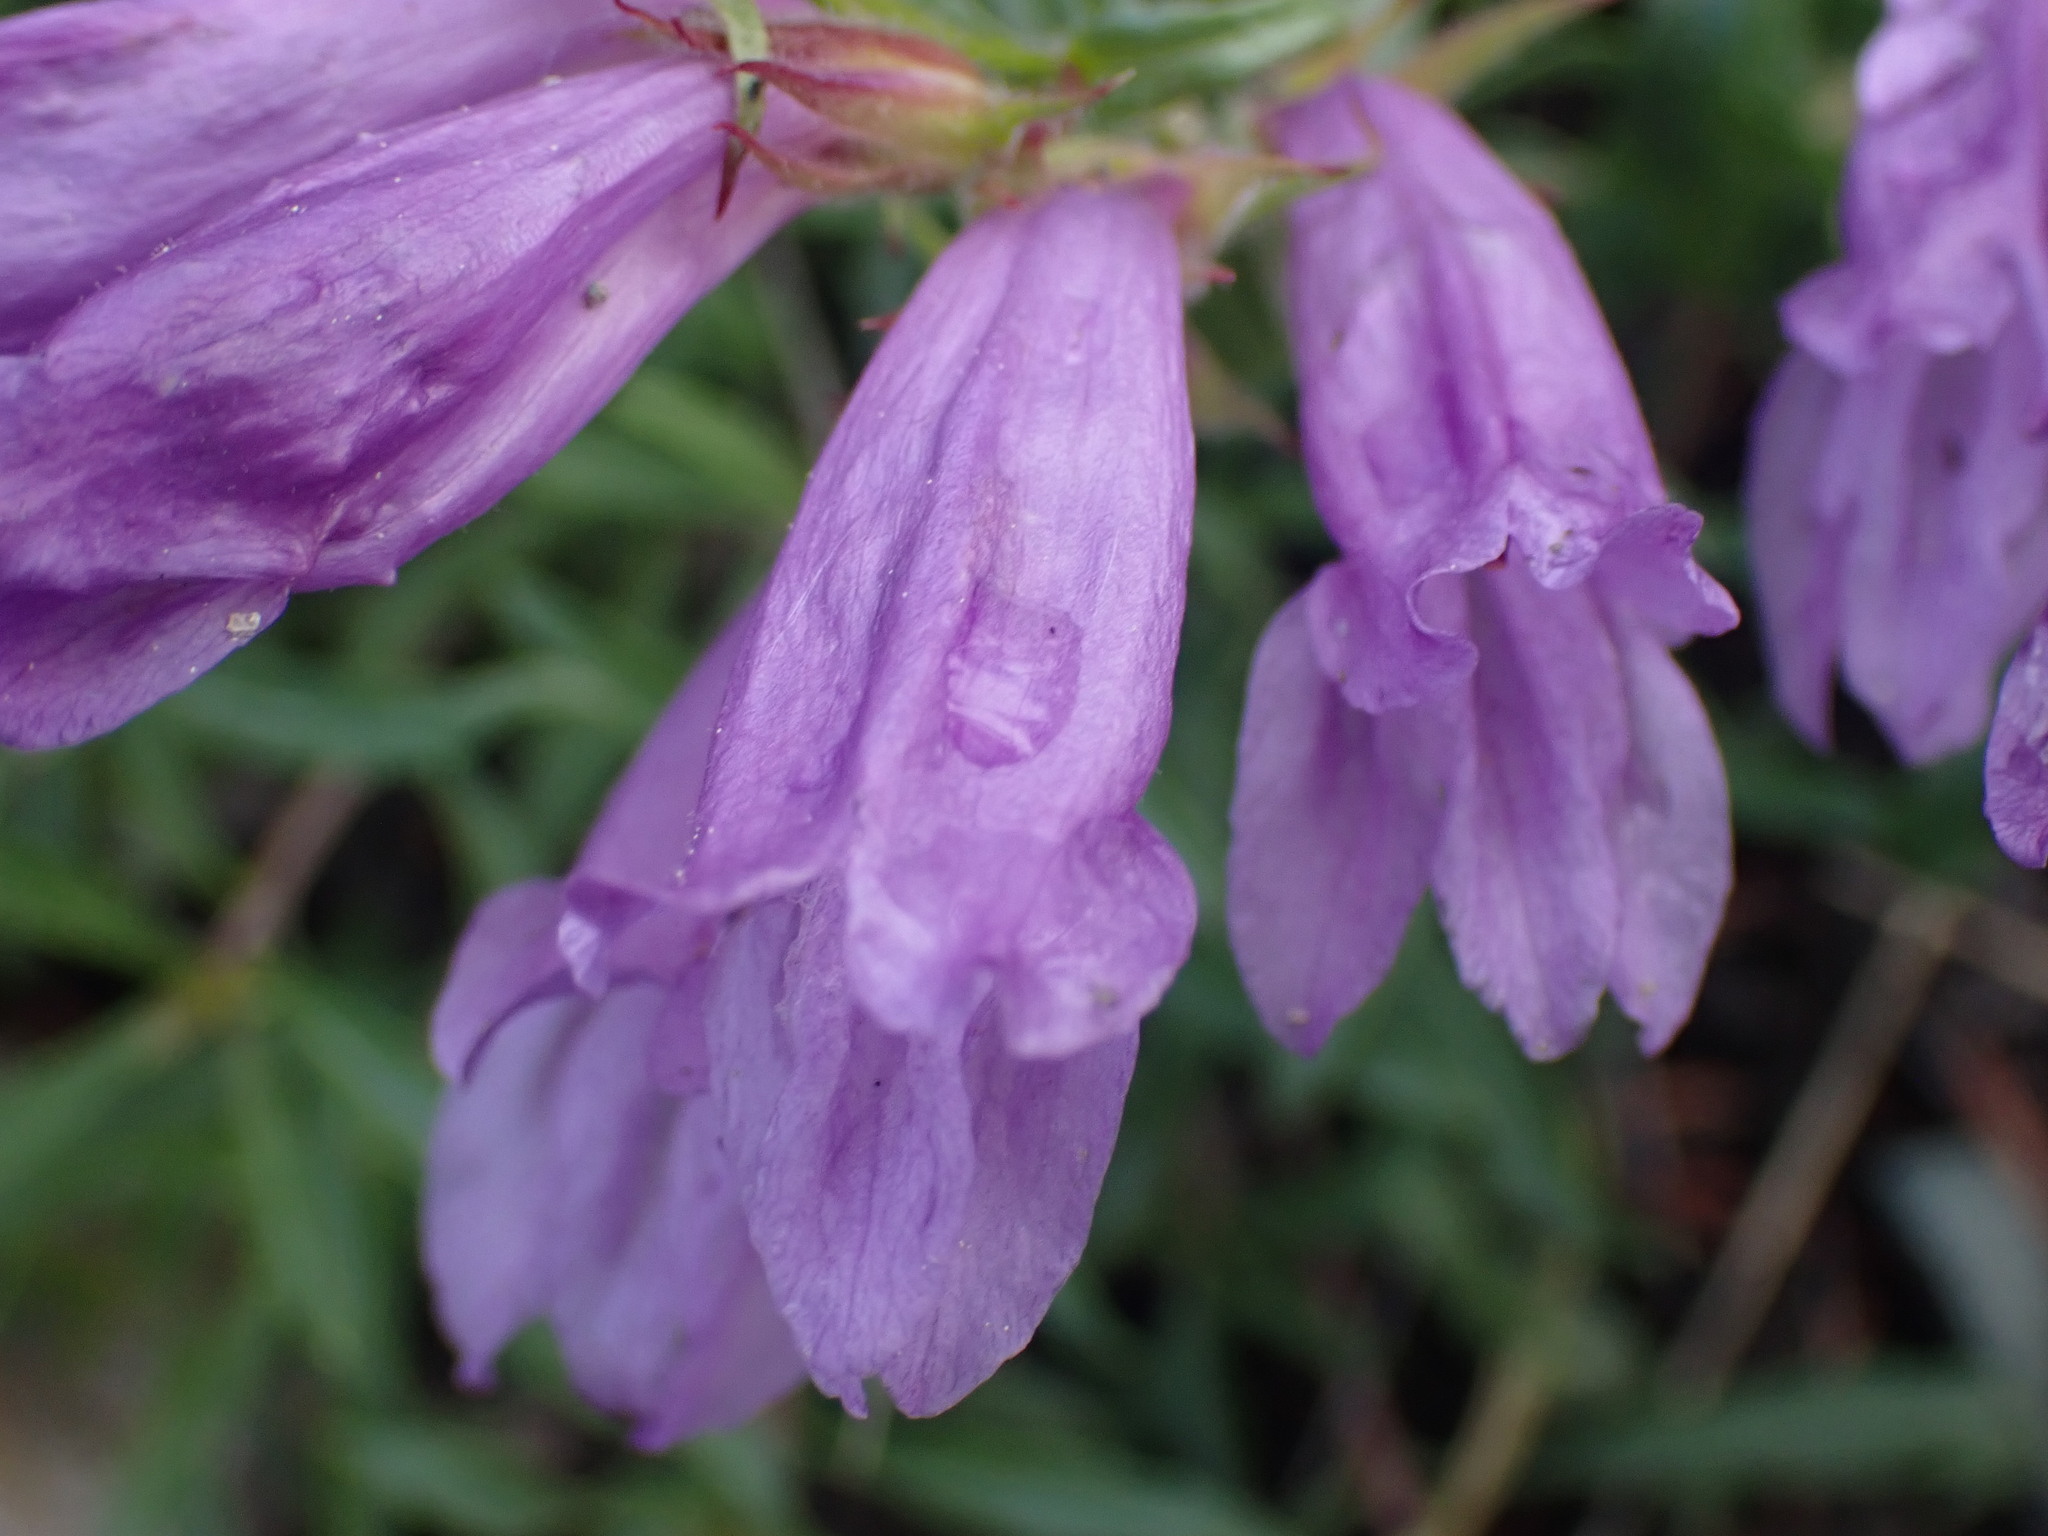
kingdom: Plantae
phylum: Tracheophyta
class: Magnoliopsida
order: Lamiales
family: Plantaginaceae
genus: Penstemon
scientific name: Penstemon fruticosus
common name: Bush penstemon
